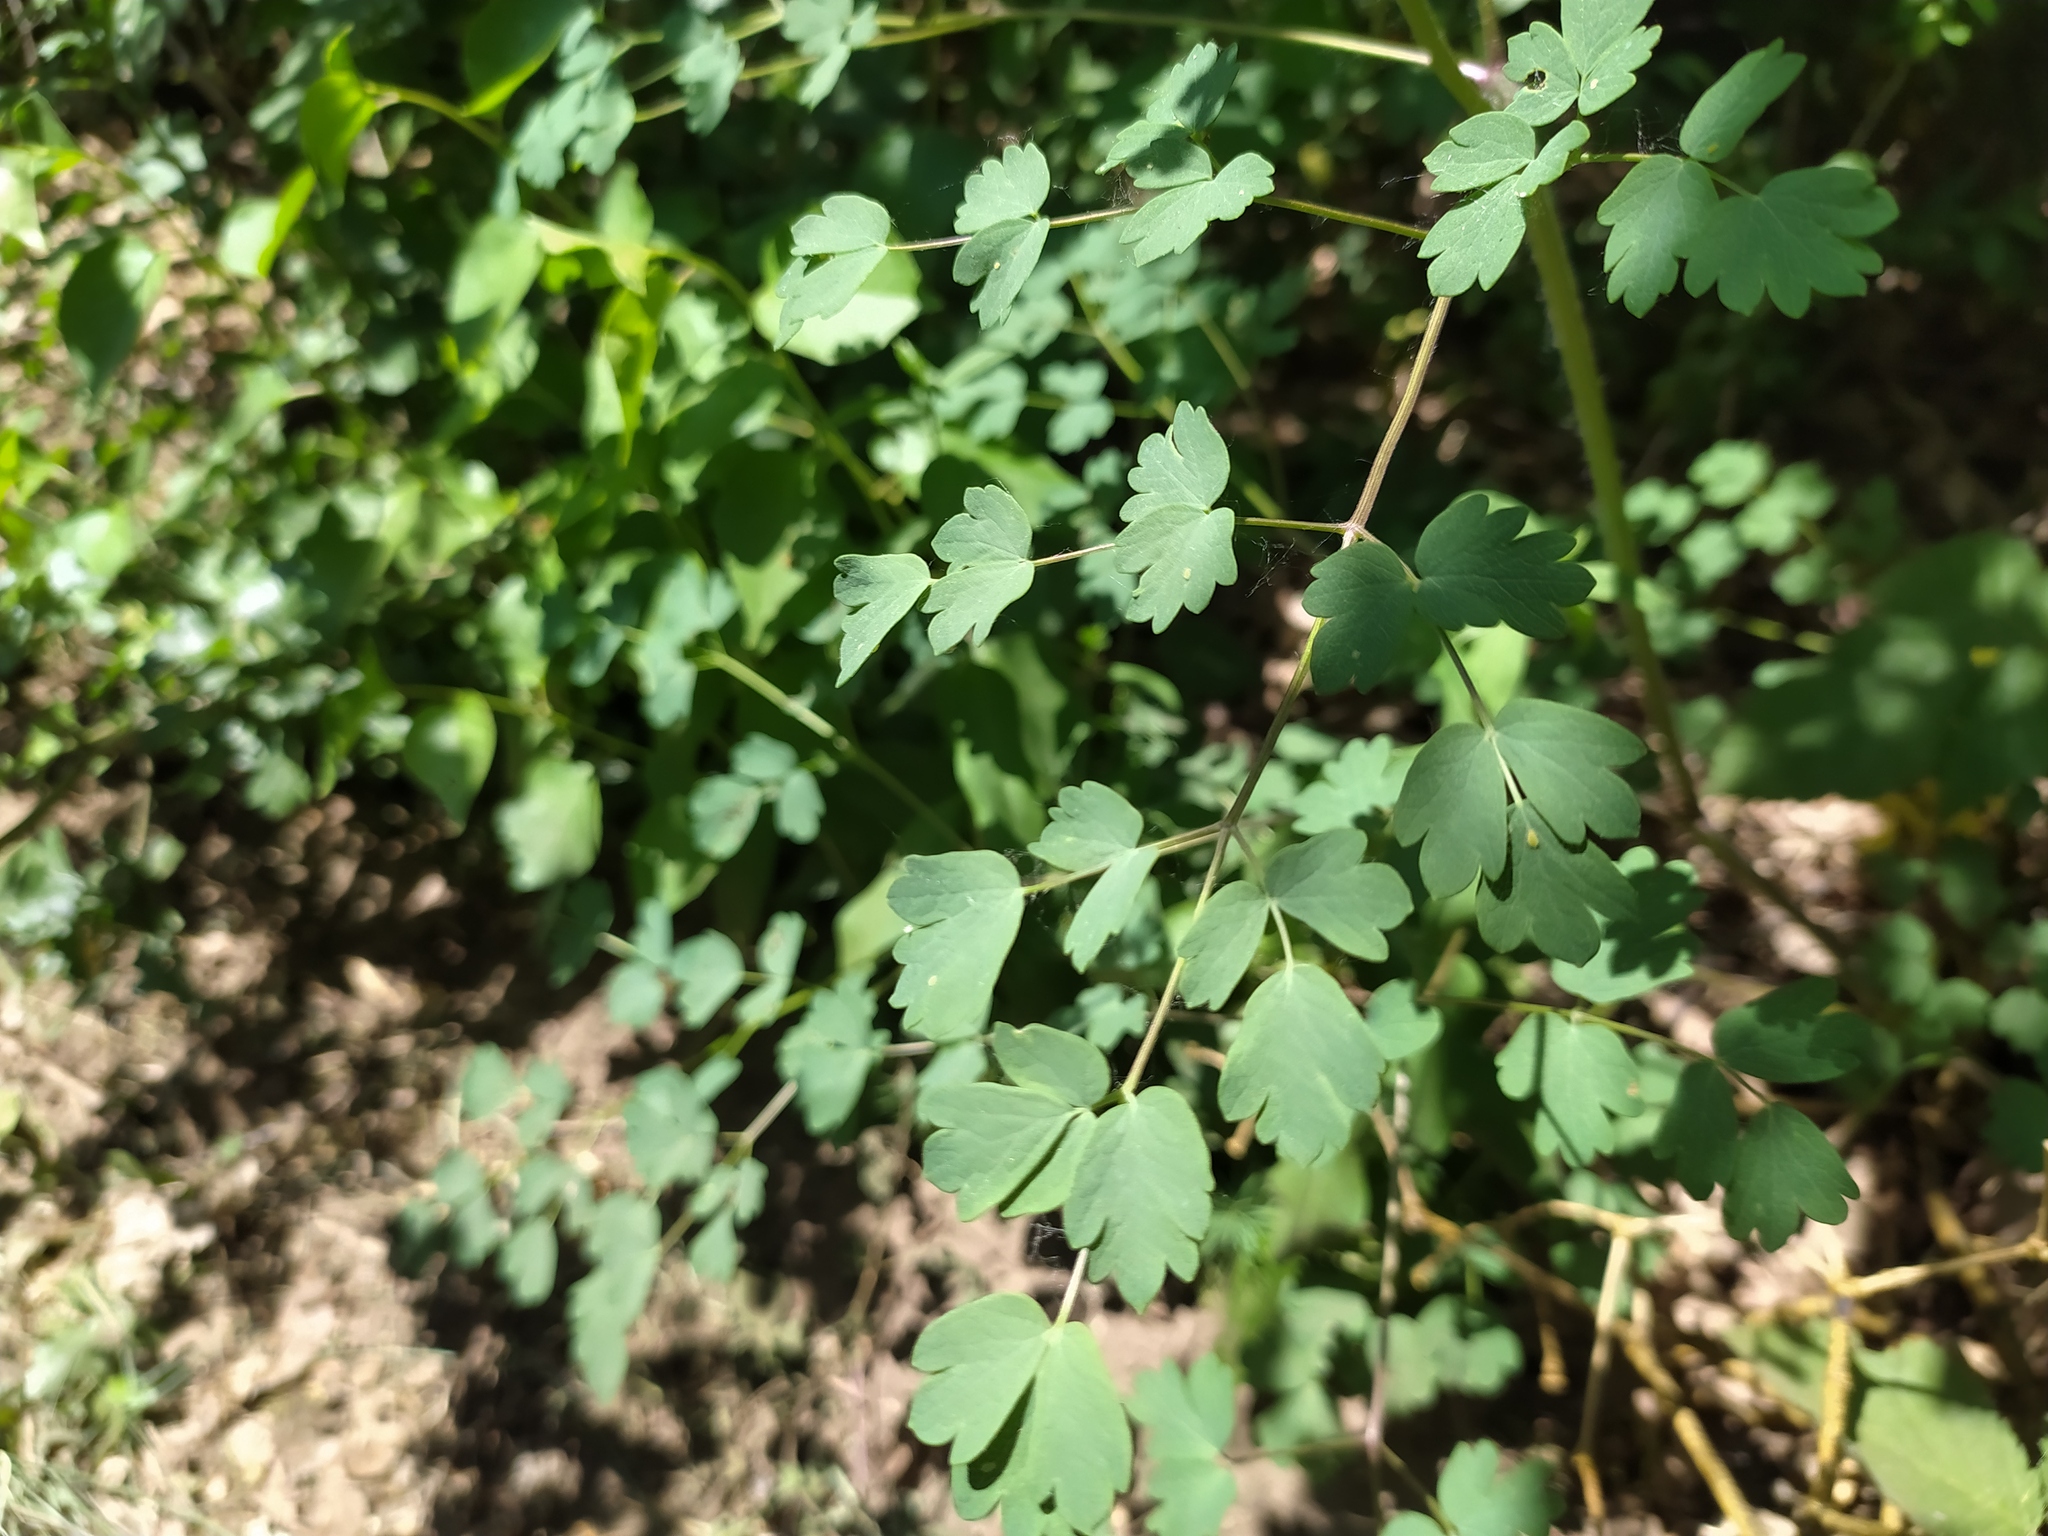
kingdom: Plantae
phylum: Tracheophyta
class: Magnoliopsida
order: Ranunculales
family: Ranunculaceae
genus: Thalictrum
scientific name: Thalictrum minus
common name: Lesser meadow-rue
